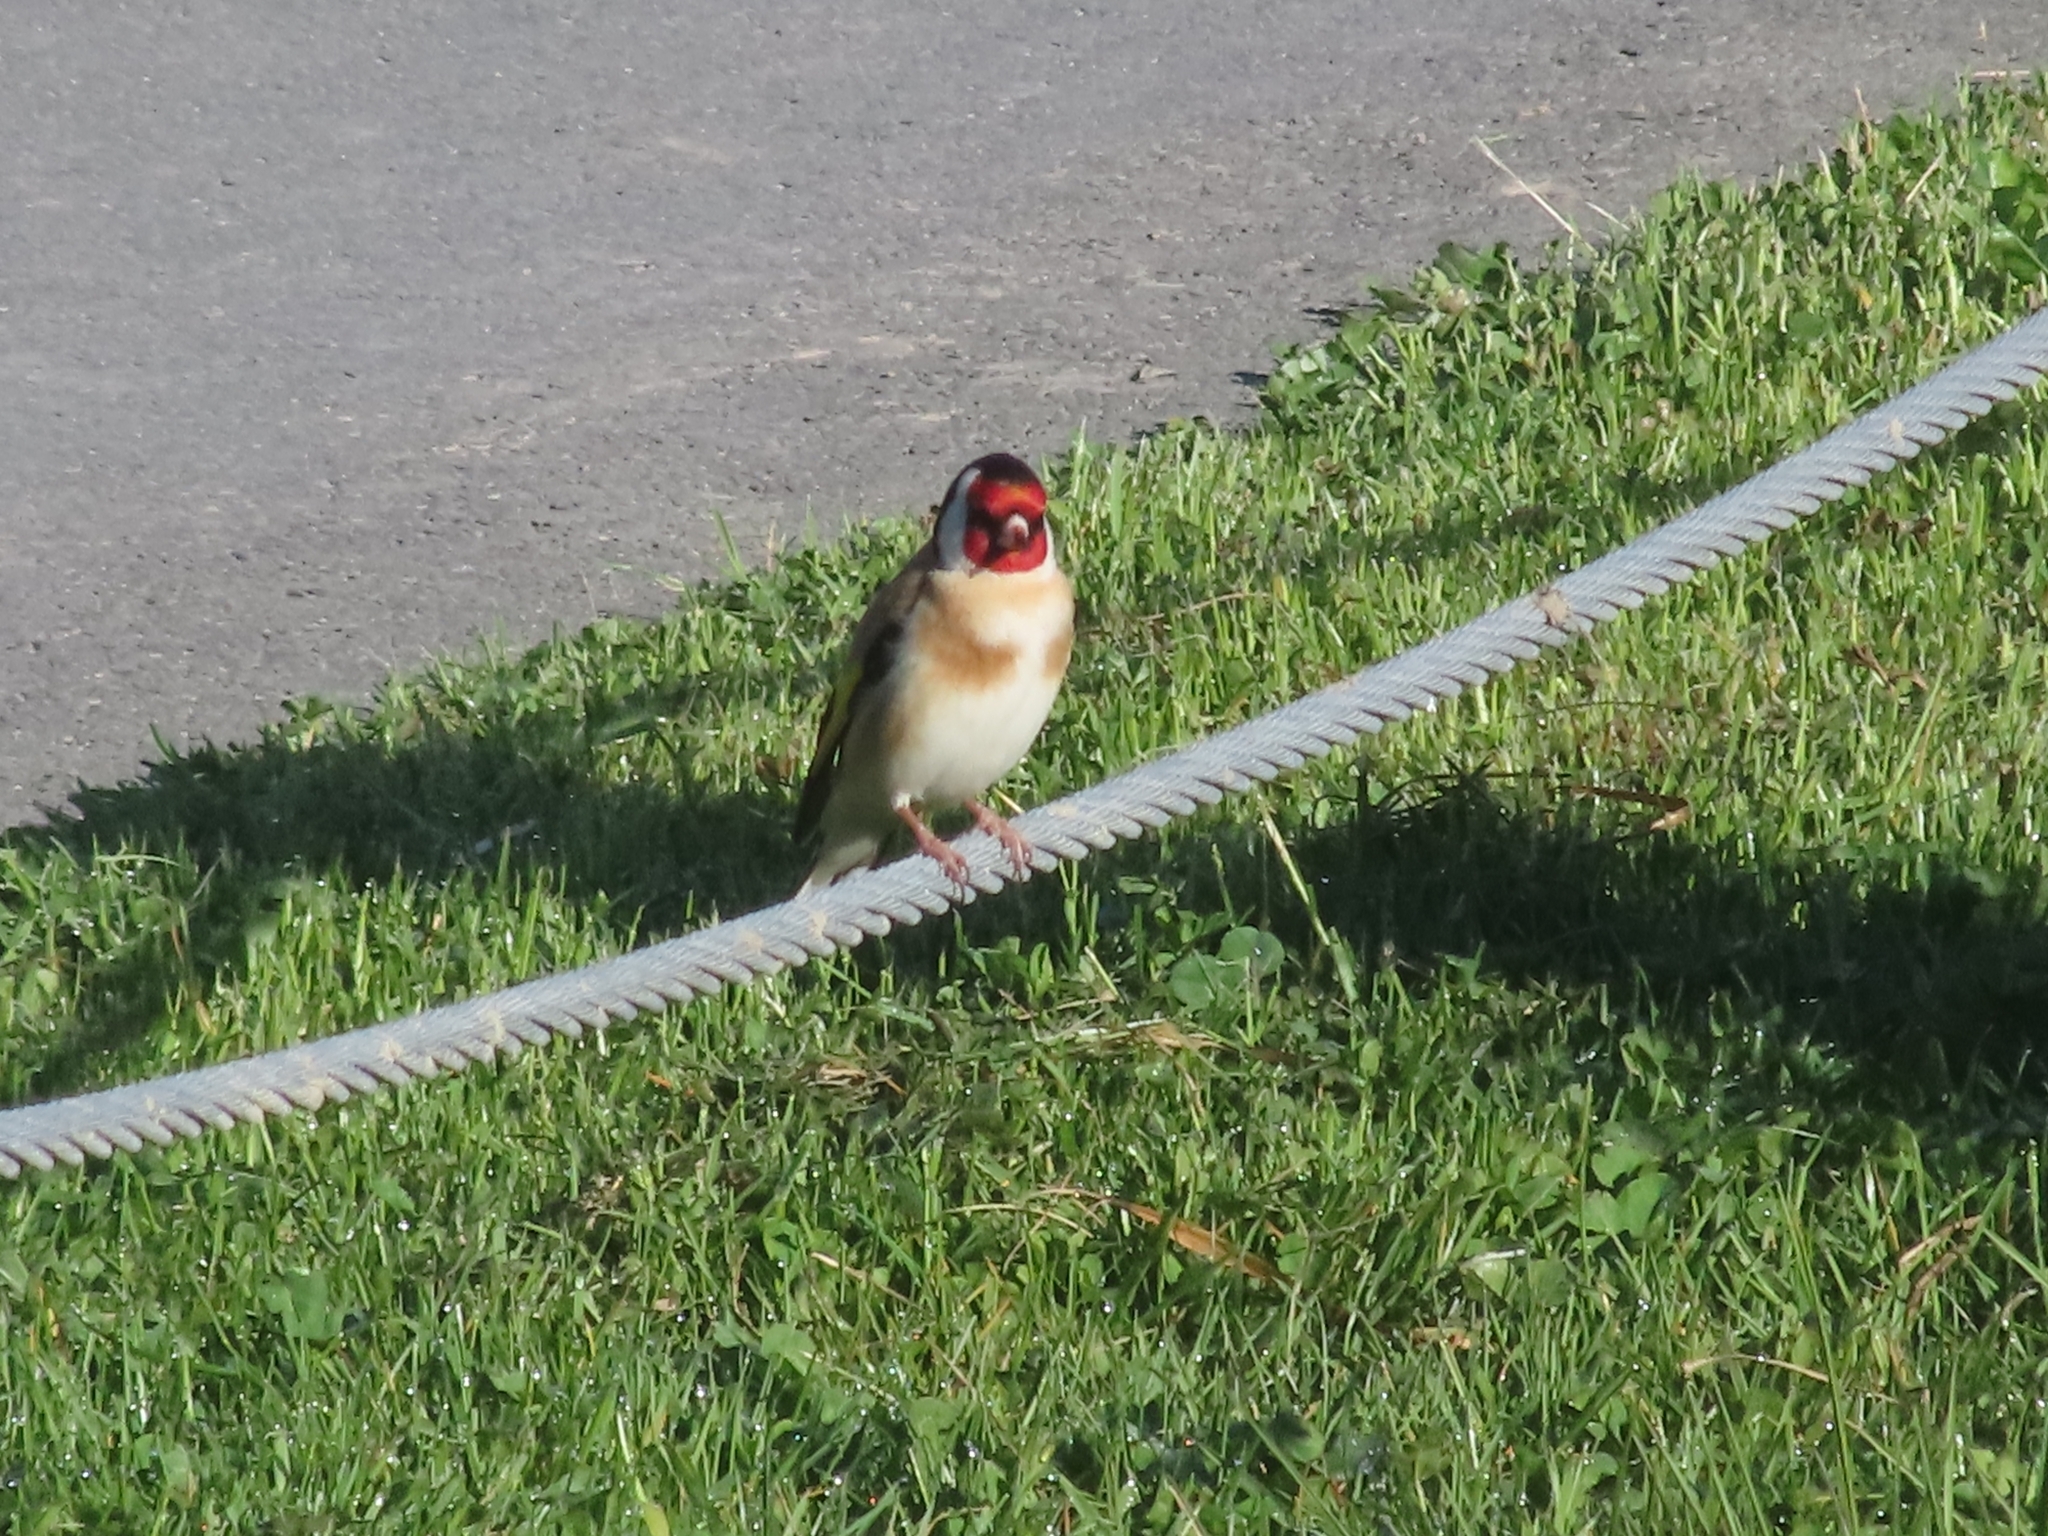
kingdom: Animalia
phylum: Chordata
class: Aves
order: Passeriformes
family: Fringillidae
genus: Carduelis
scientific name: Carduelis carduelis
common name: European goldfinch
